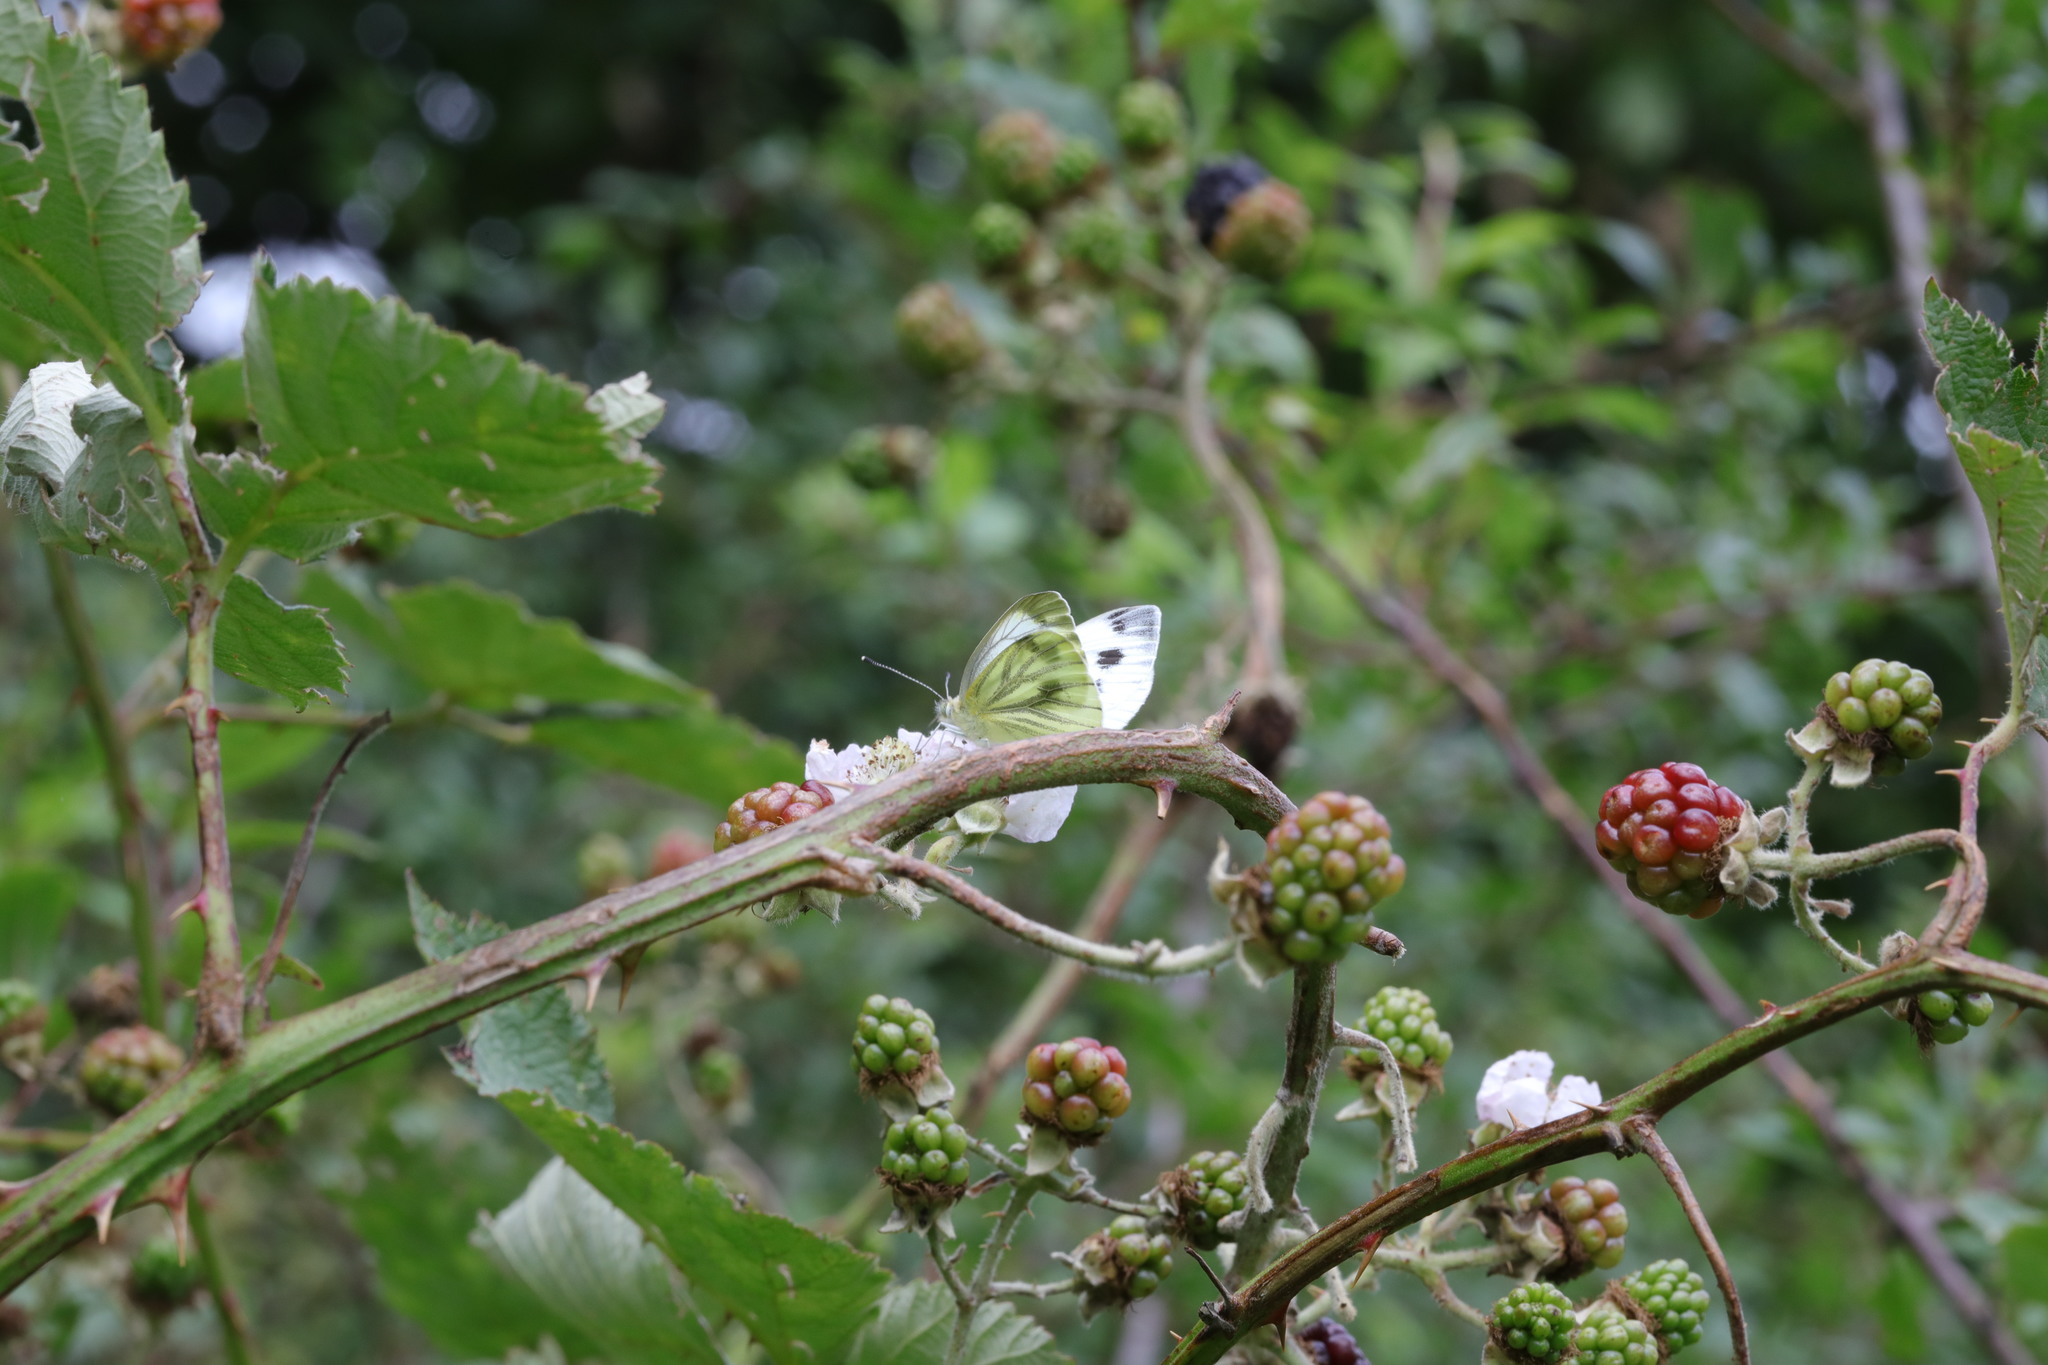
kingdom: Animalia
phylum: Arthropoda
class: Insecta
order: Lepidoptera
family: Pieridae
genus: Pieris
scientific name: Pieris napi
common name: Green-veined white
